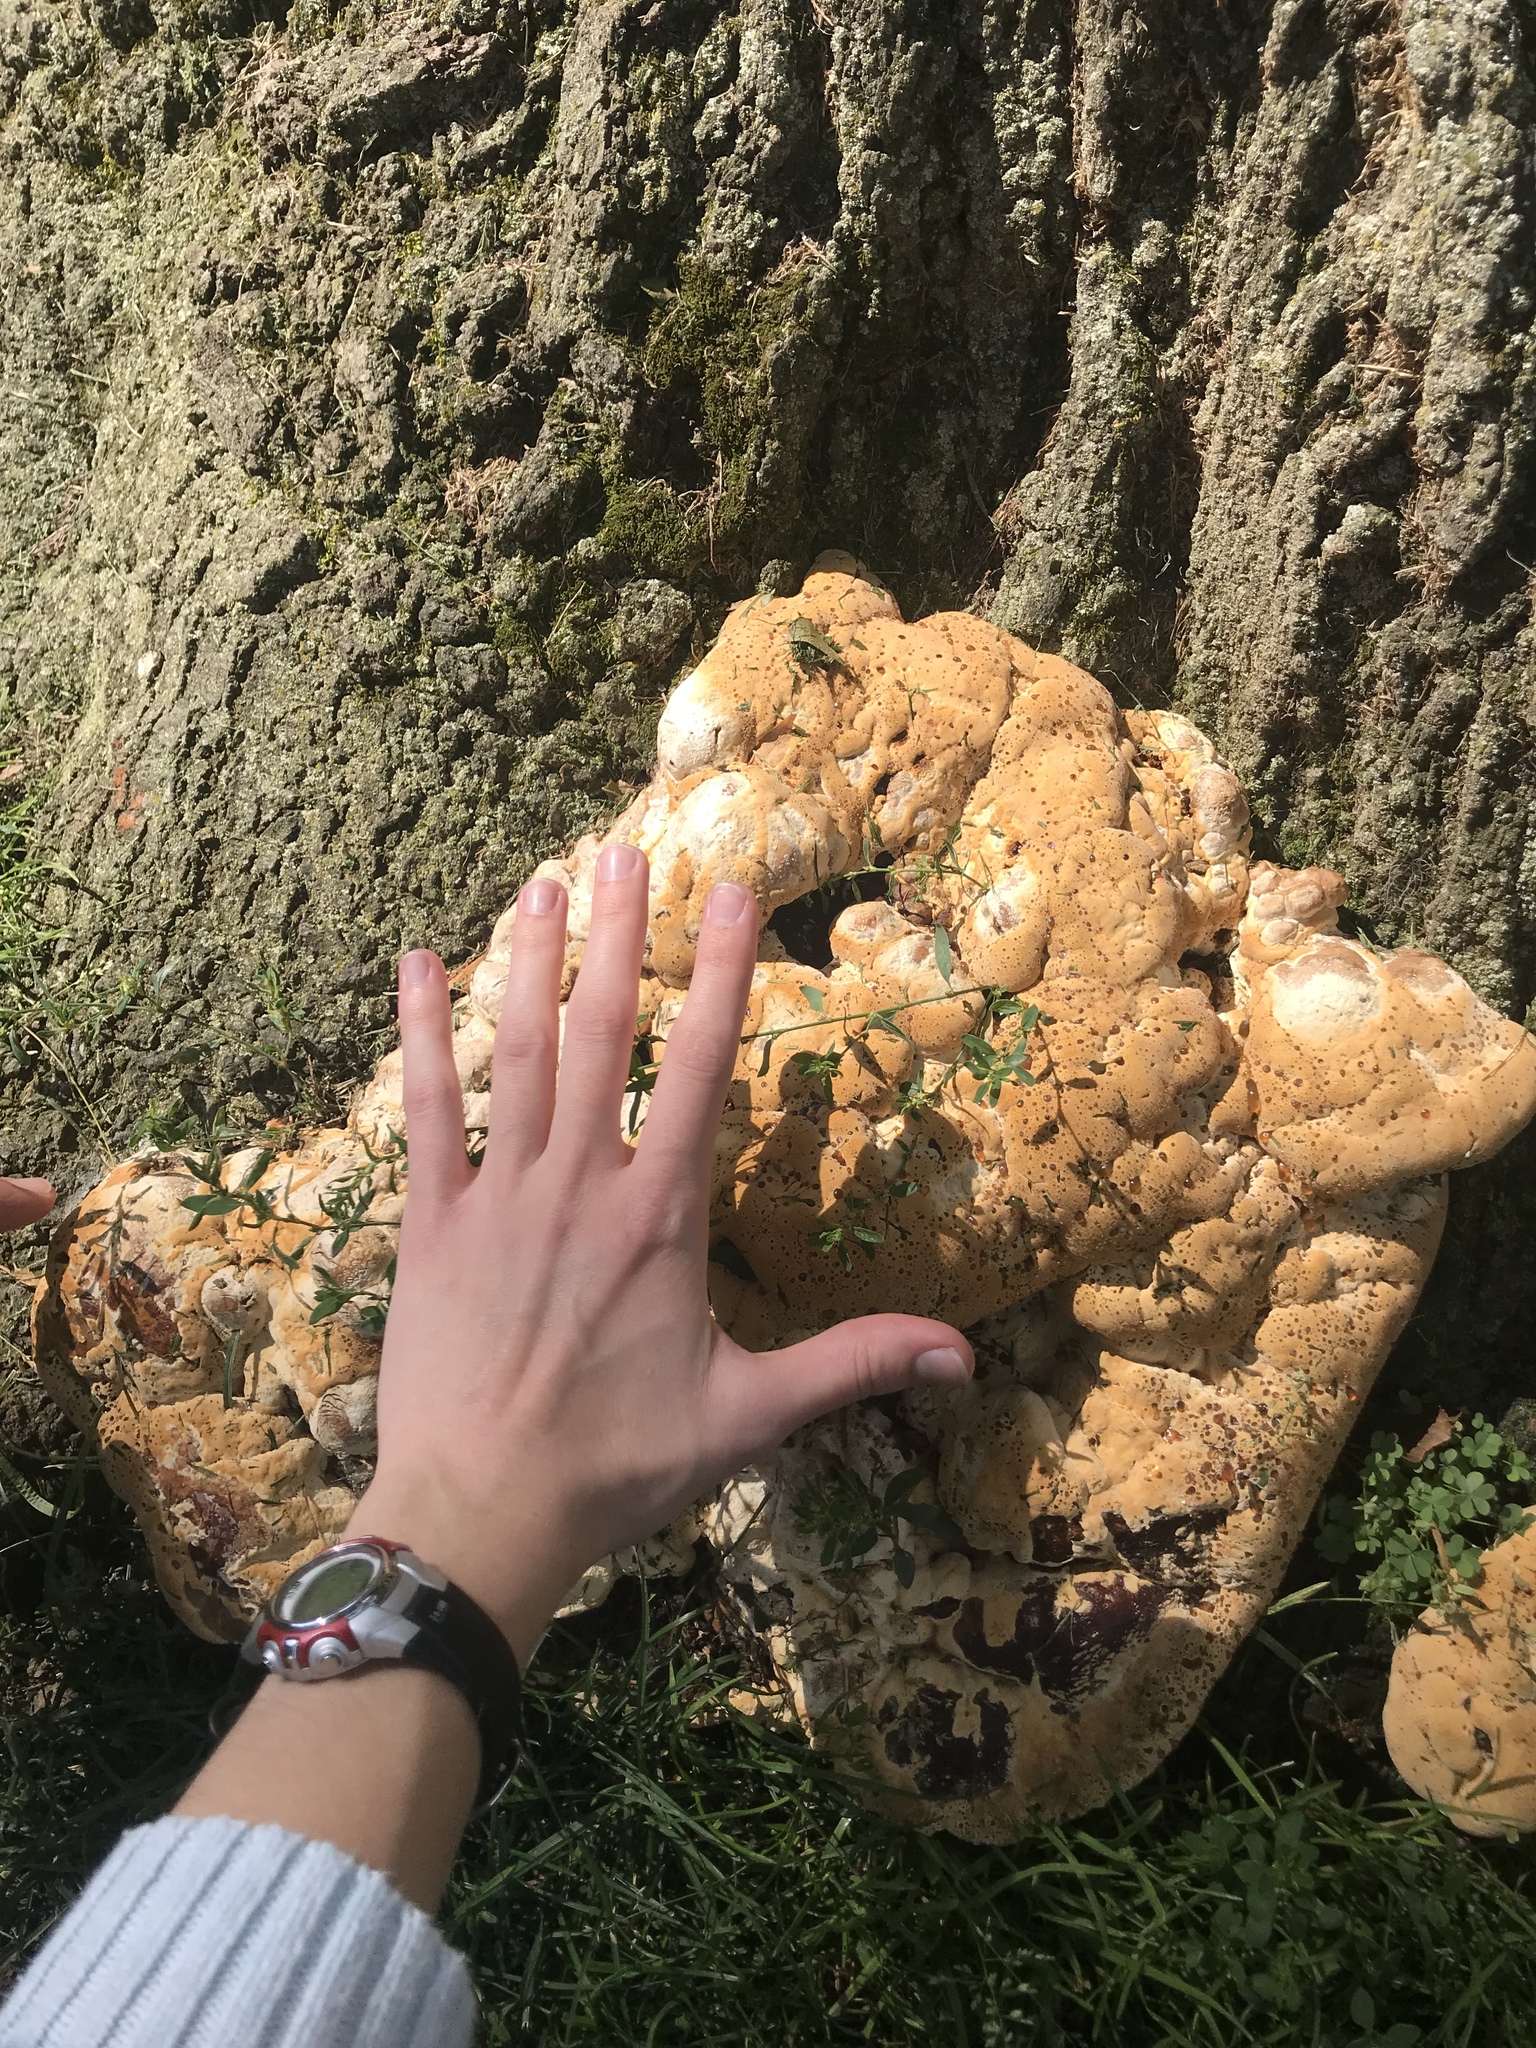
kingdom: Fungi
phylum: Basidiomycota
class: Agaricomycetes
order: Hymenochaetales
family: Hymenochaetaceae
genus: Pseudoinonotus
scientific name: Pseudoinonotus dryadeus
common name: Oak bracket
